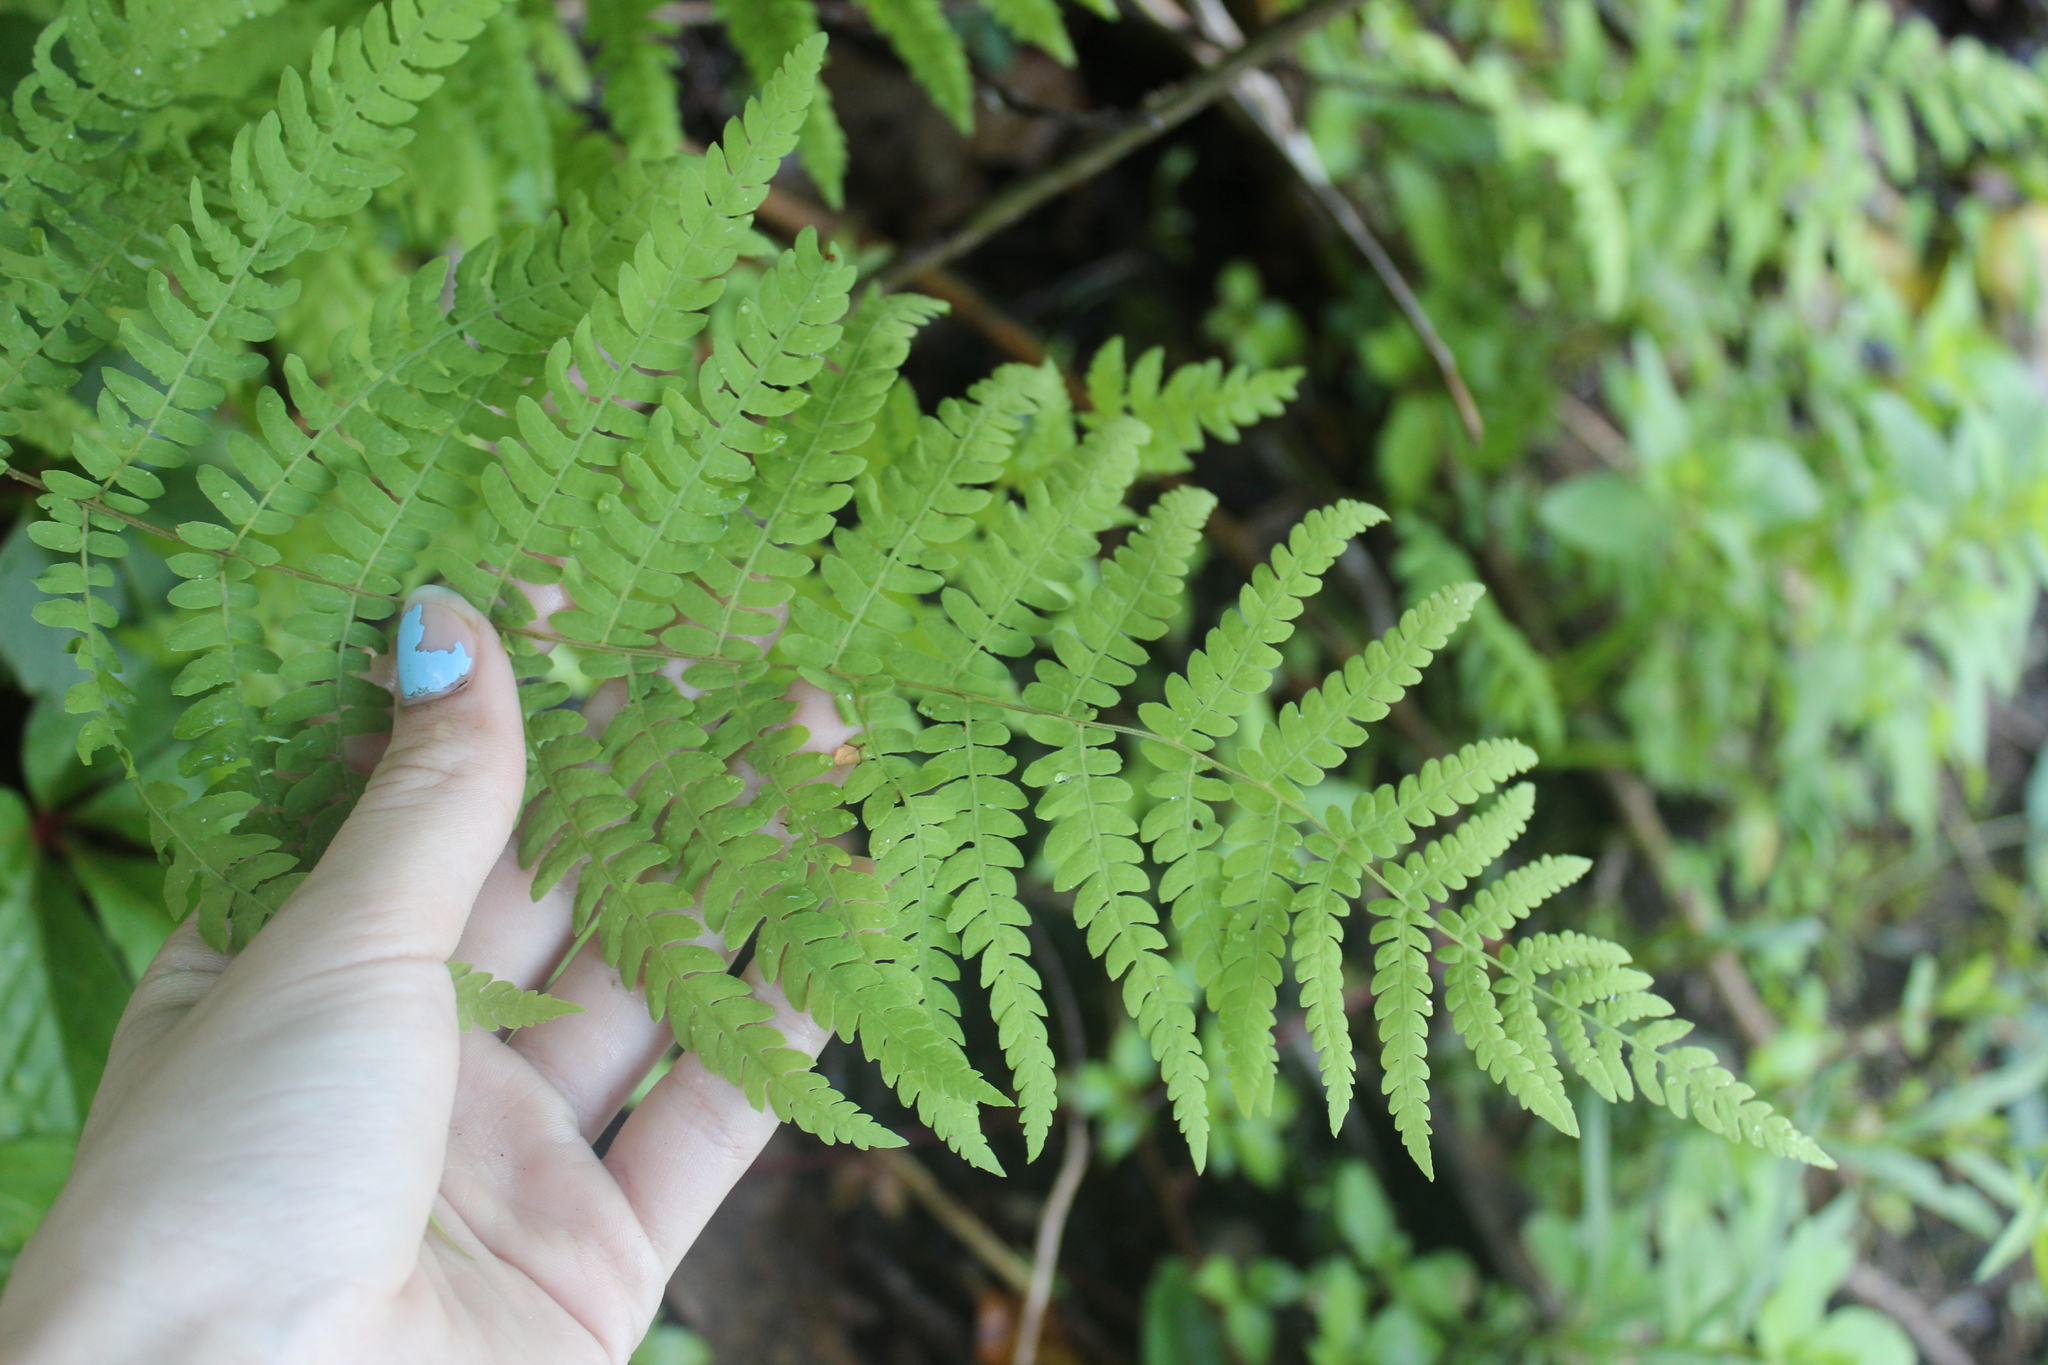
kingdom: Plantae
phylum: Tracheophyta
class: Polypodiopsida
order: Polypodiales
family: Thelypteridaceae
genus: Thelypteris
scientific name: Thelypteris palustris
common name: Marsh fern
